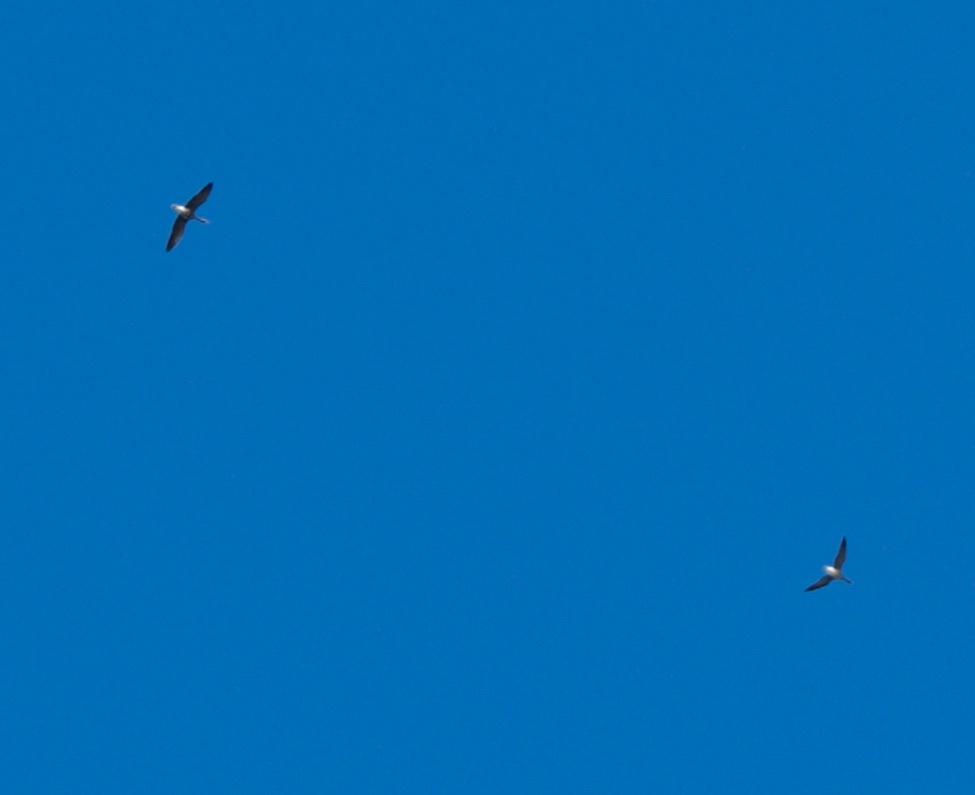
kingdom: Animalia
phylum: Chordata
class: Aves
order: Anseriformes
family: Anatidae
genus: Anser
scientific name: Anser albifrons
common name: Greater white-fronted goose
